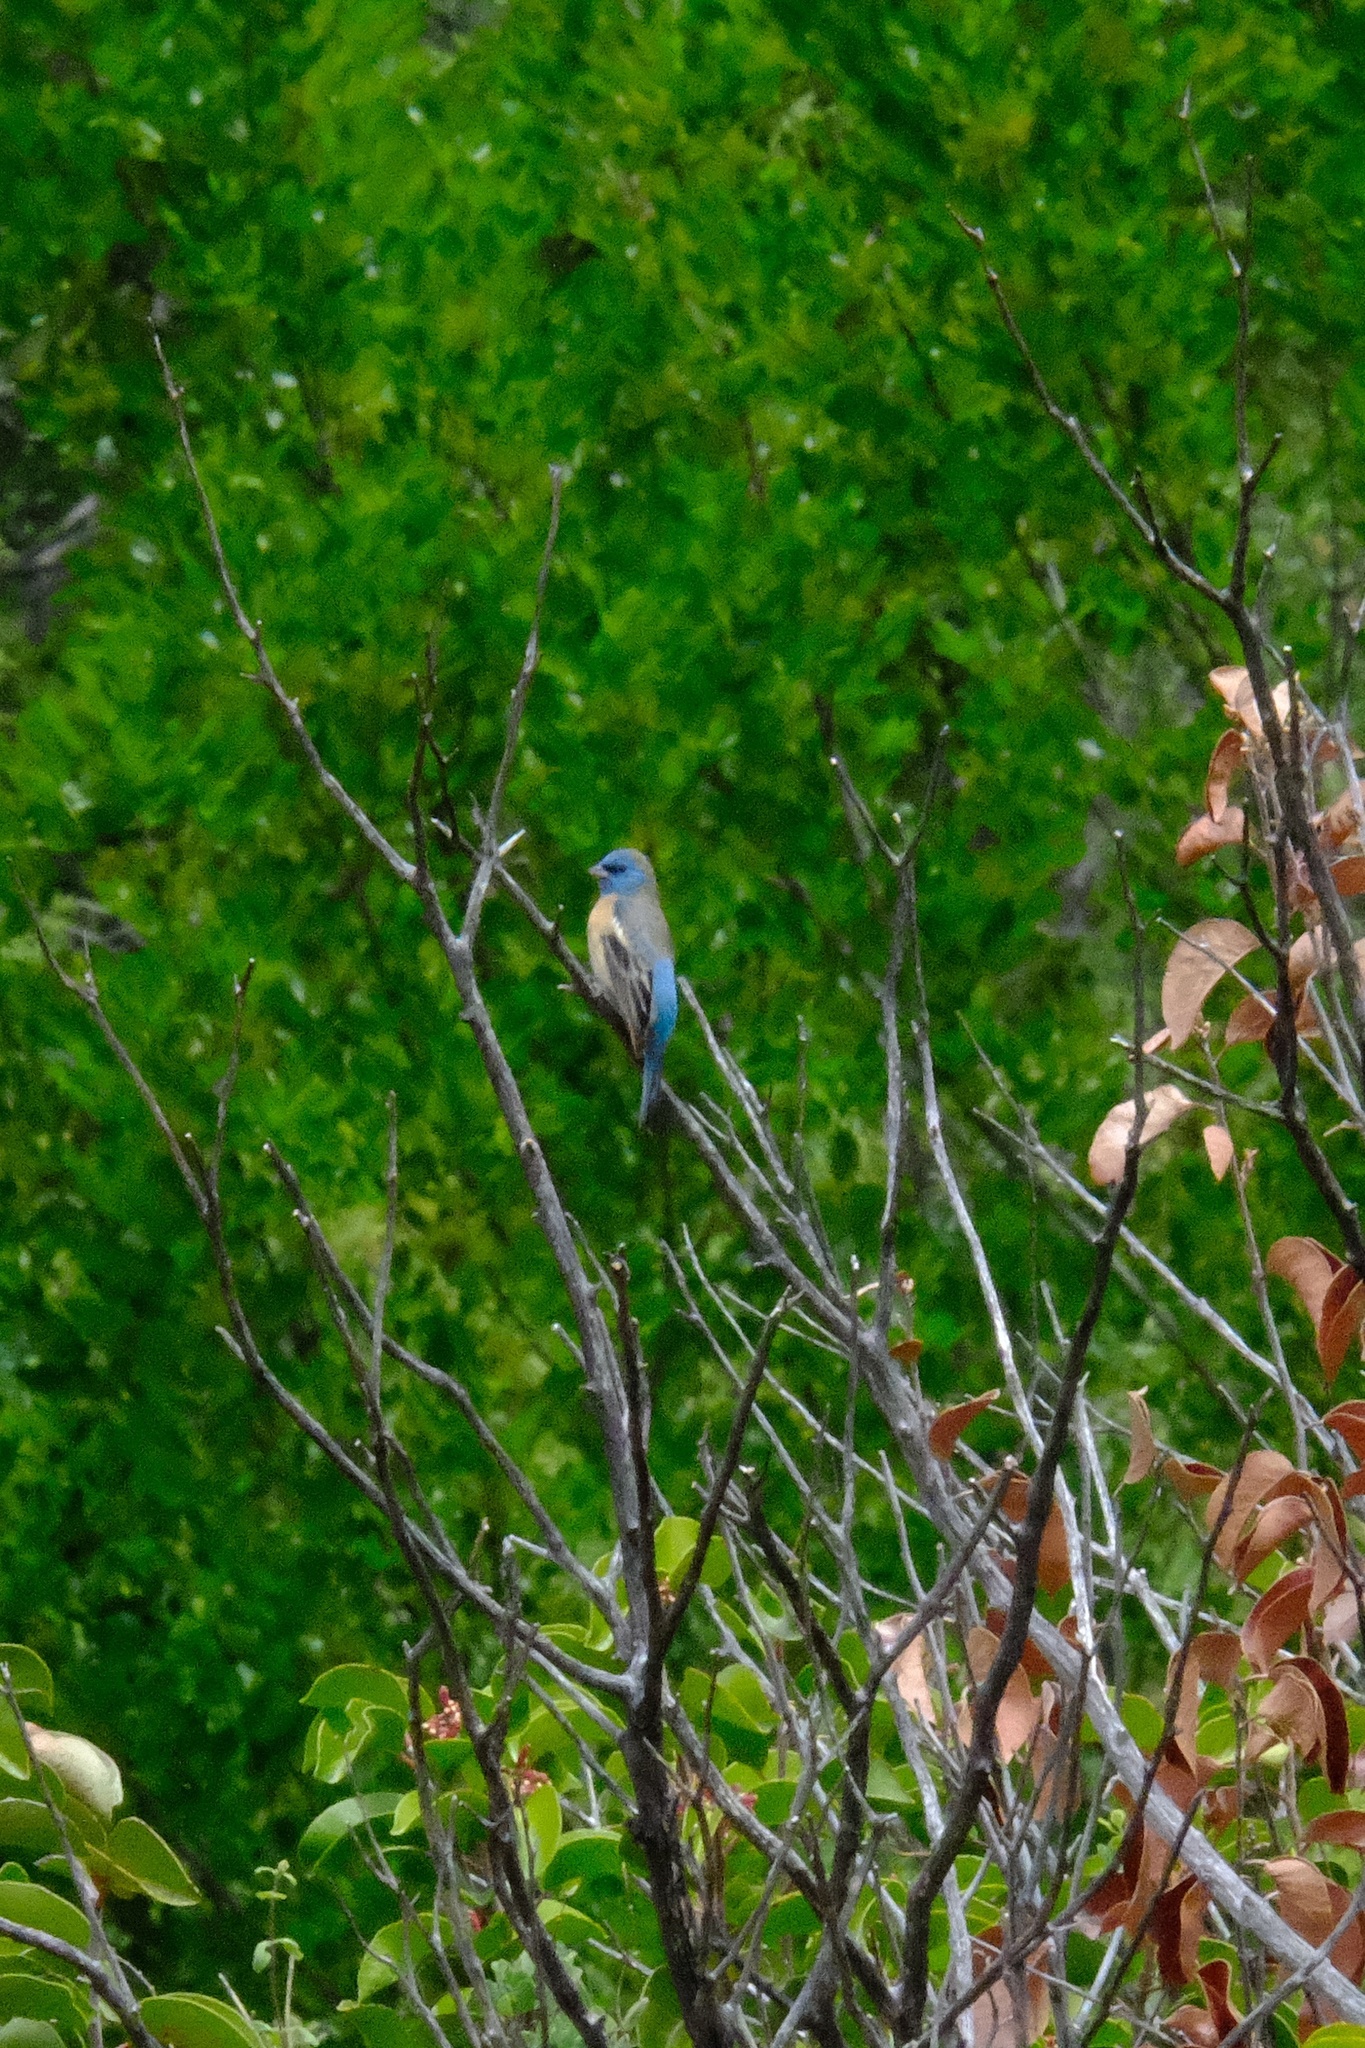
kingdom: Animalia
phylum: Chordata
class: Aves
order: Passeriformes
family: Cardinalidae
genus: Passerina
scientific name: Passerina amoena
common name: Lazuli bunting
